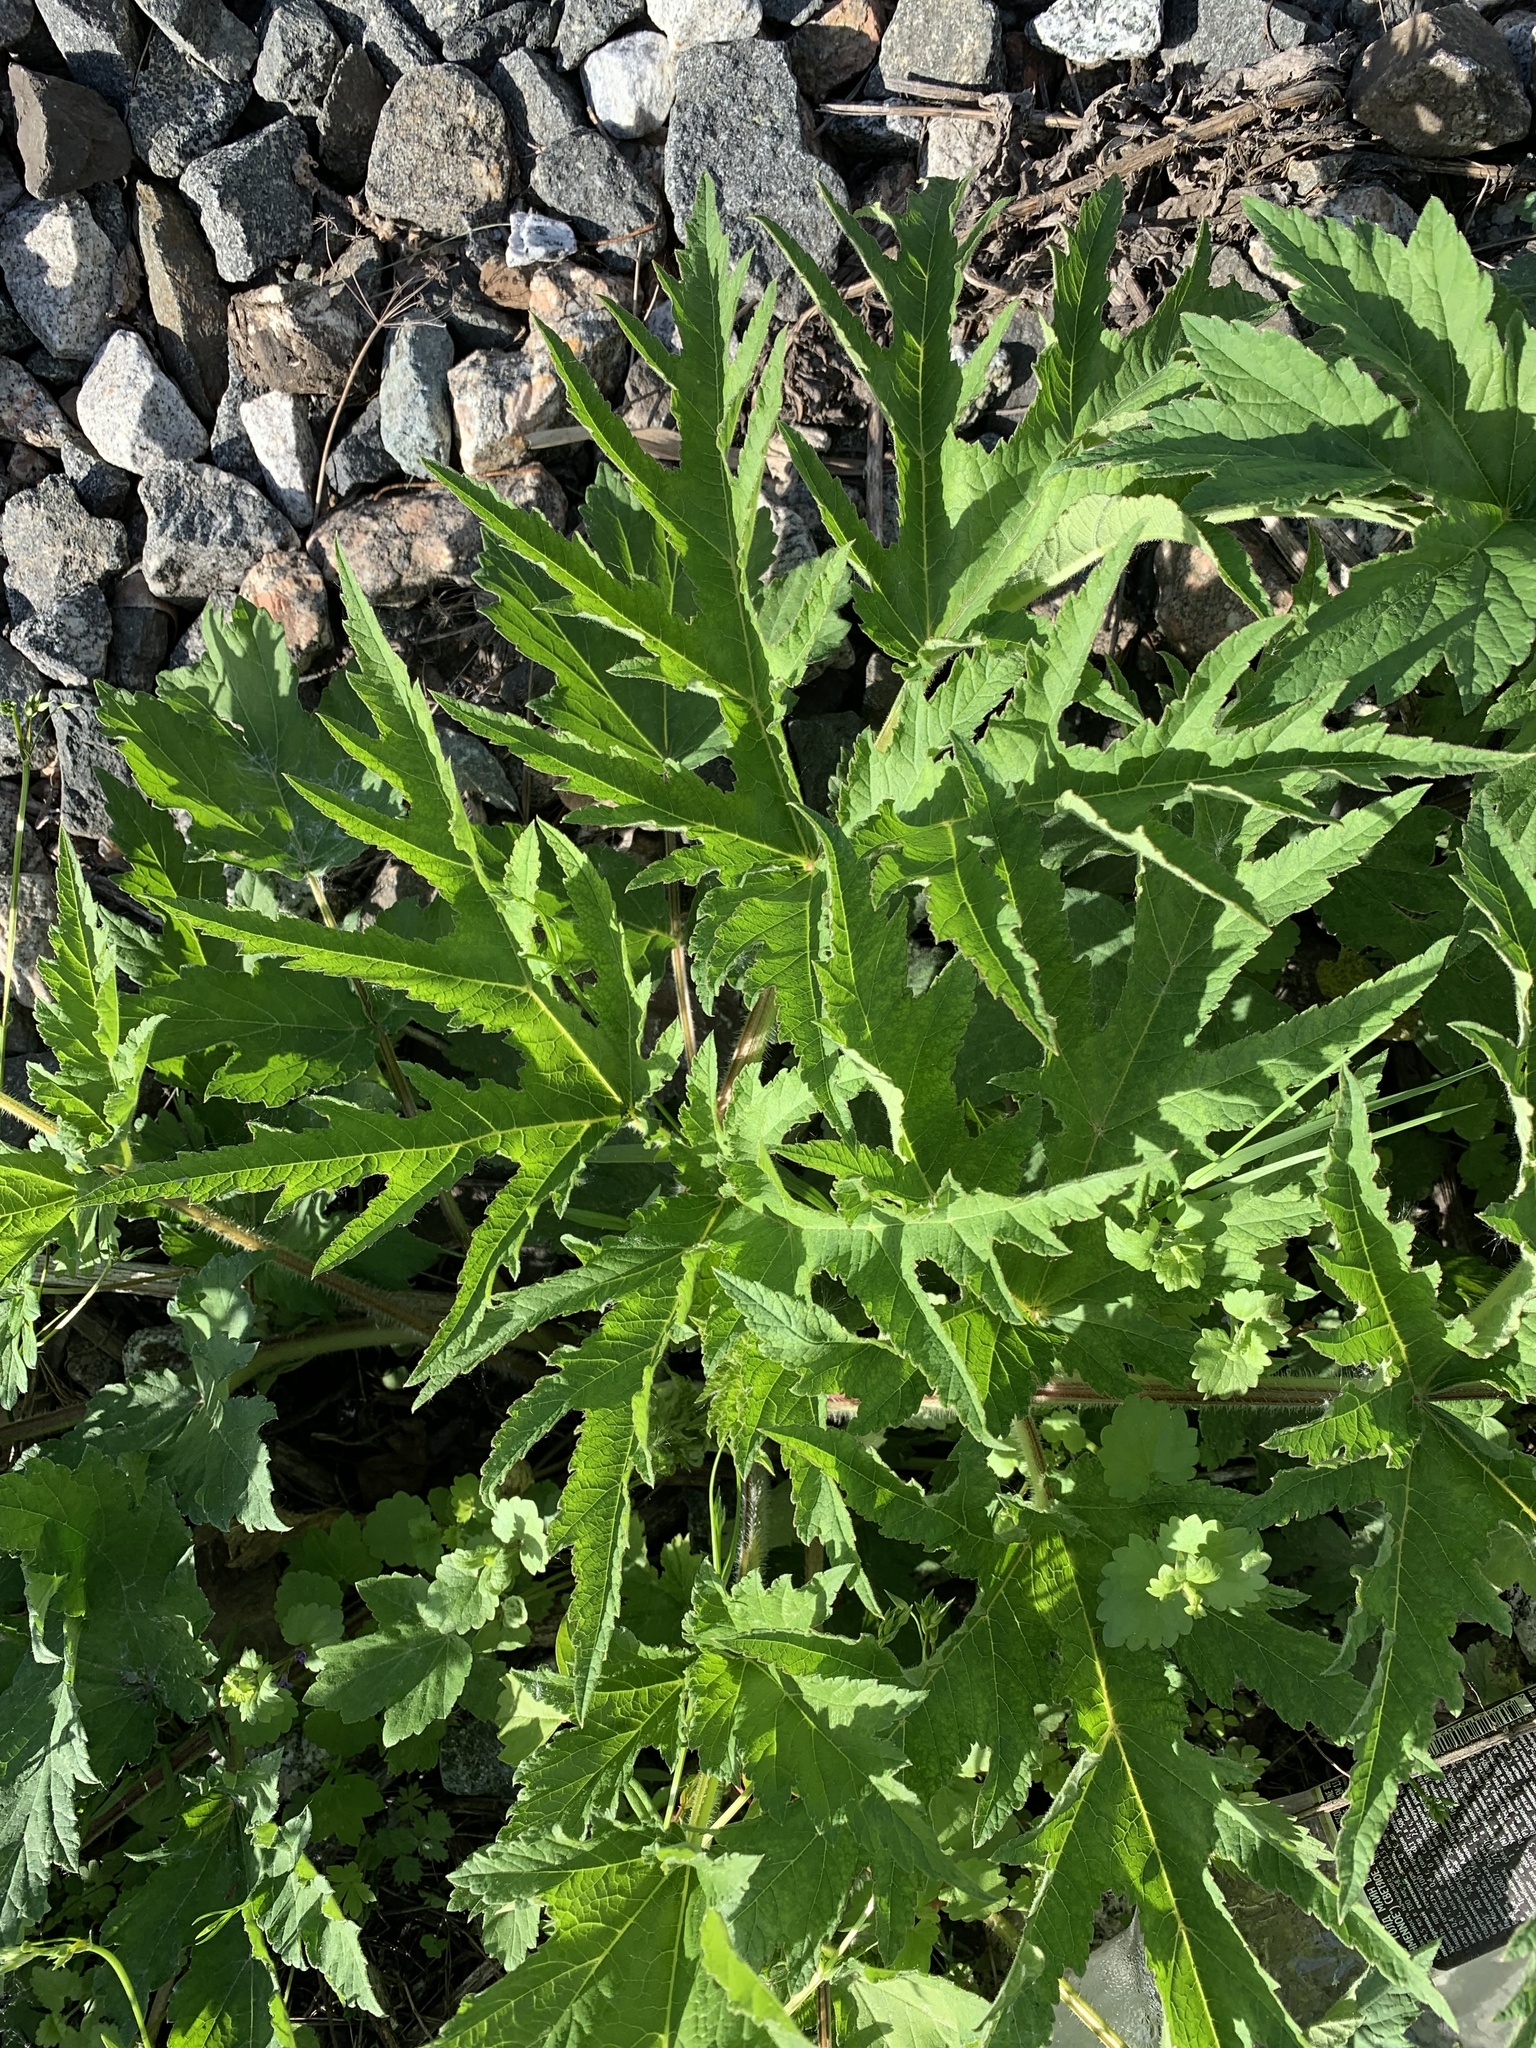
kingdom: Plantae
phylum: Tracheophyta
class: Magnoliopsida
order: Apiales
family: Apiaceae
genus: Heracleum
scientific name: Heracleum sphondylium
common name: Hogweed
